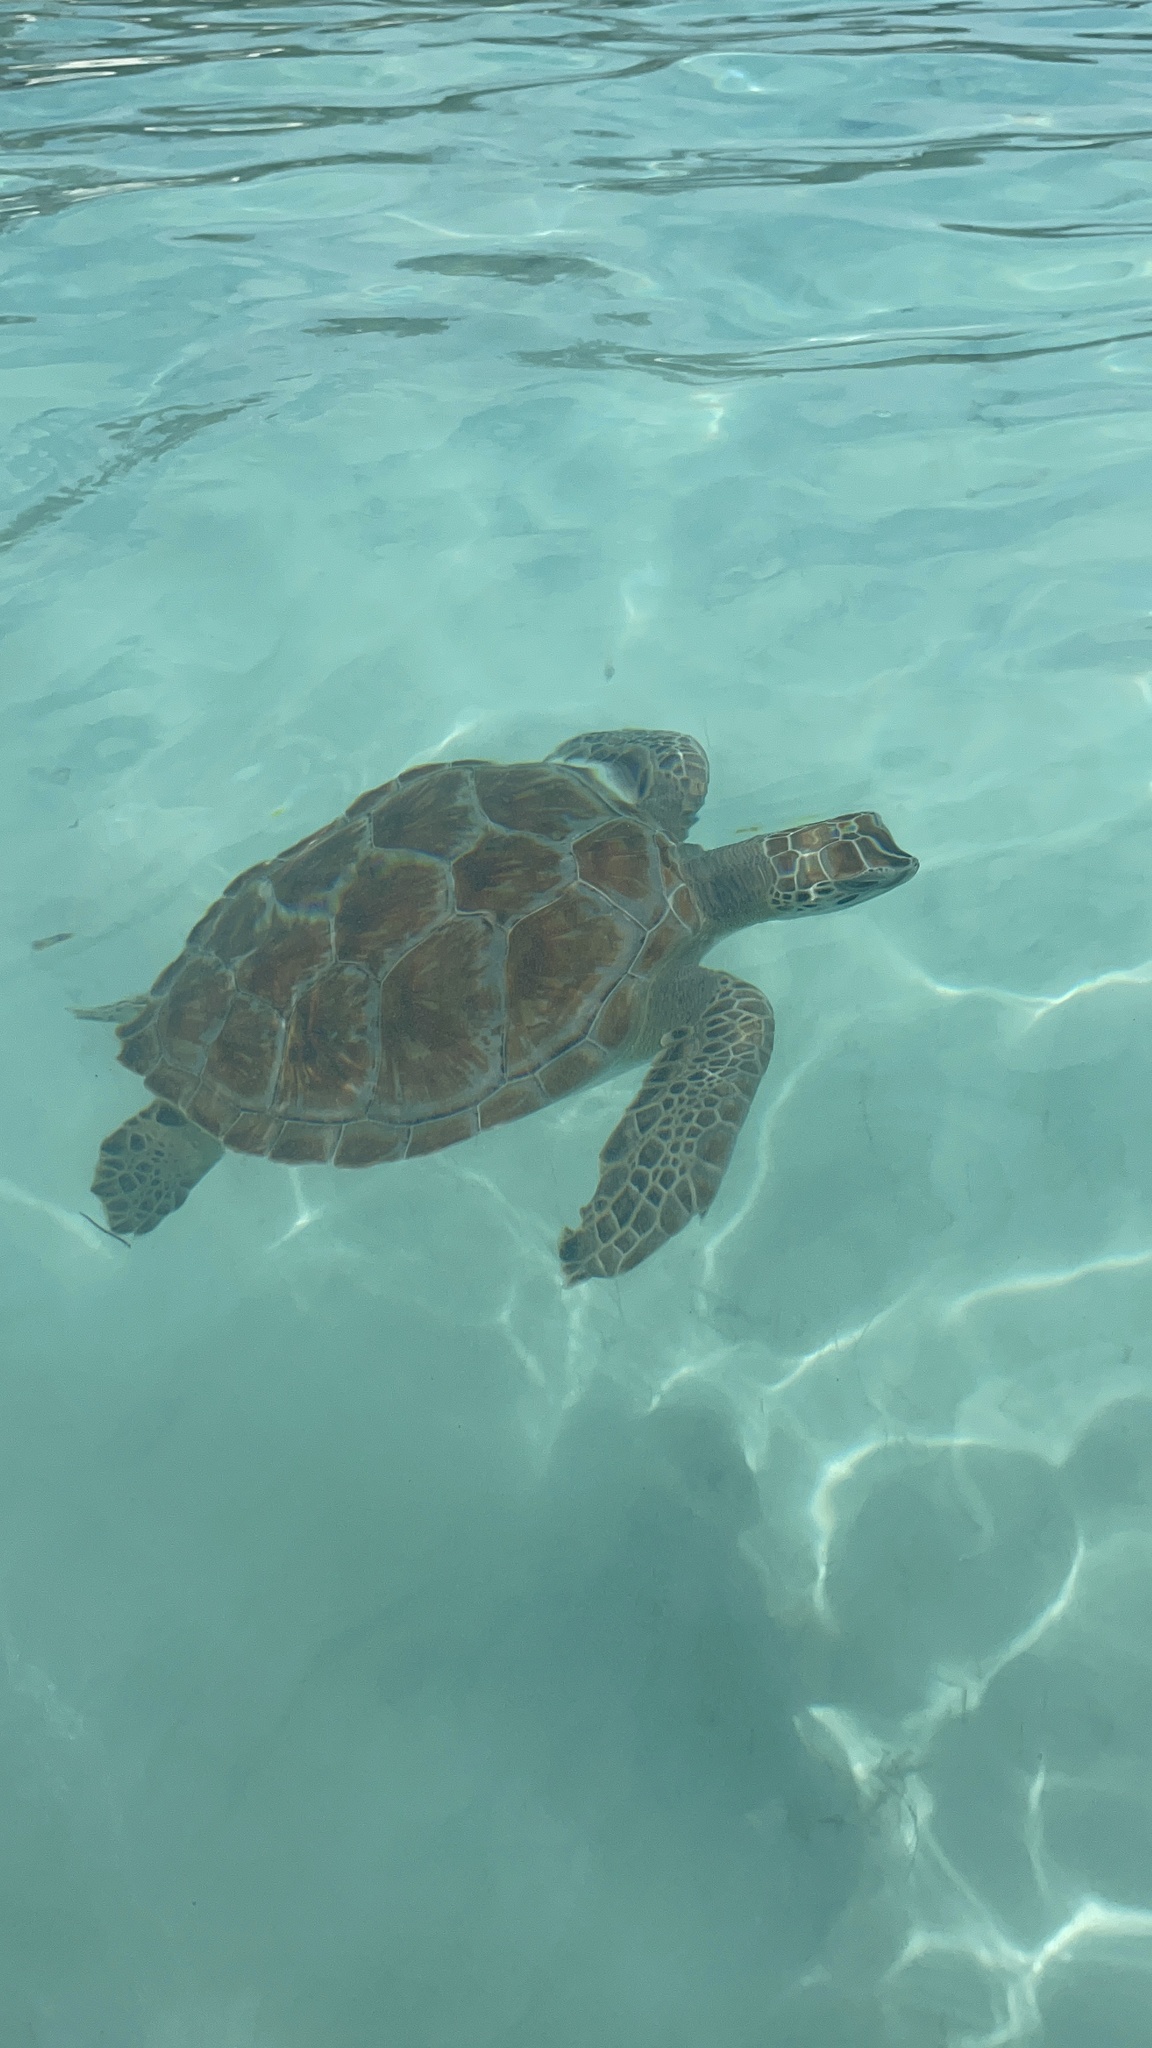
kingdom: Animalia
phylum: Chordata
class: Testudines
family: Cheloniidae
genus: Chelonia
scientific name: Chelonia mydas
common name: Green turtle
